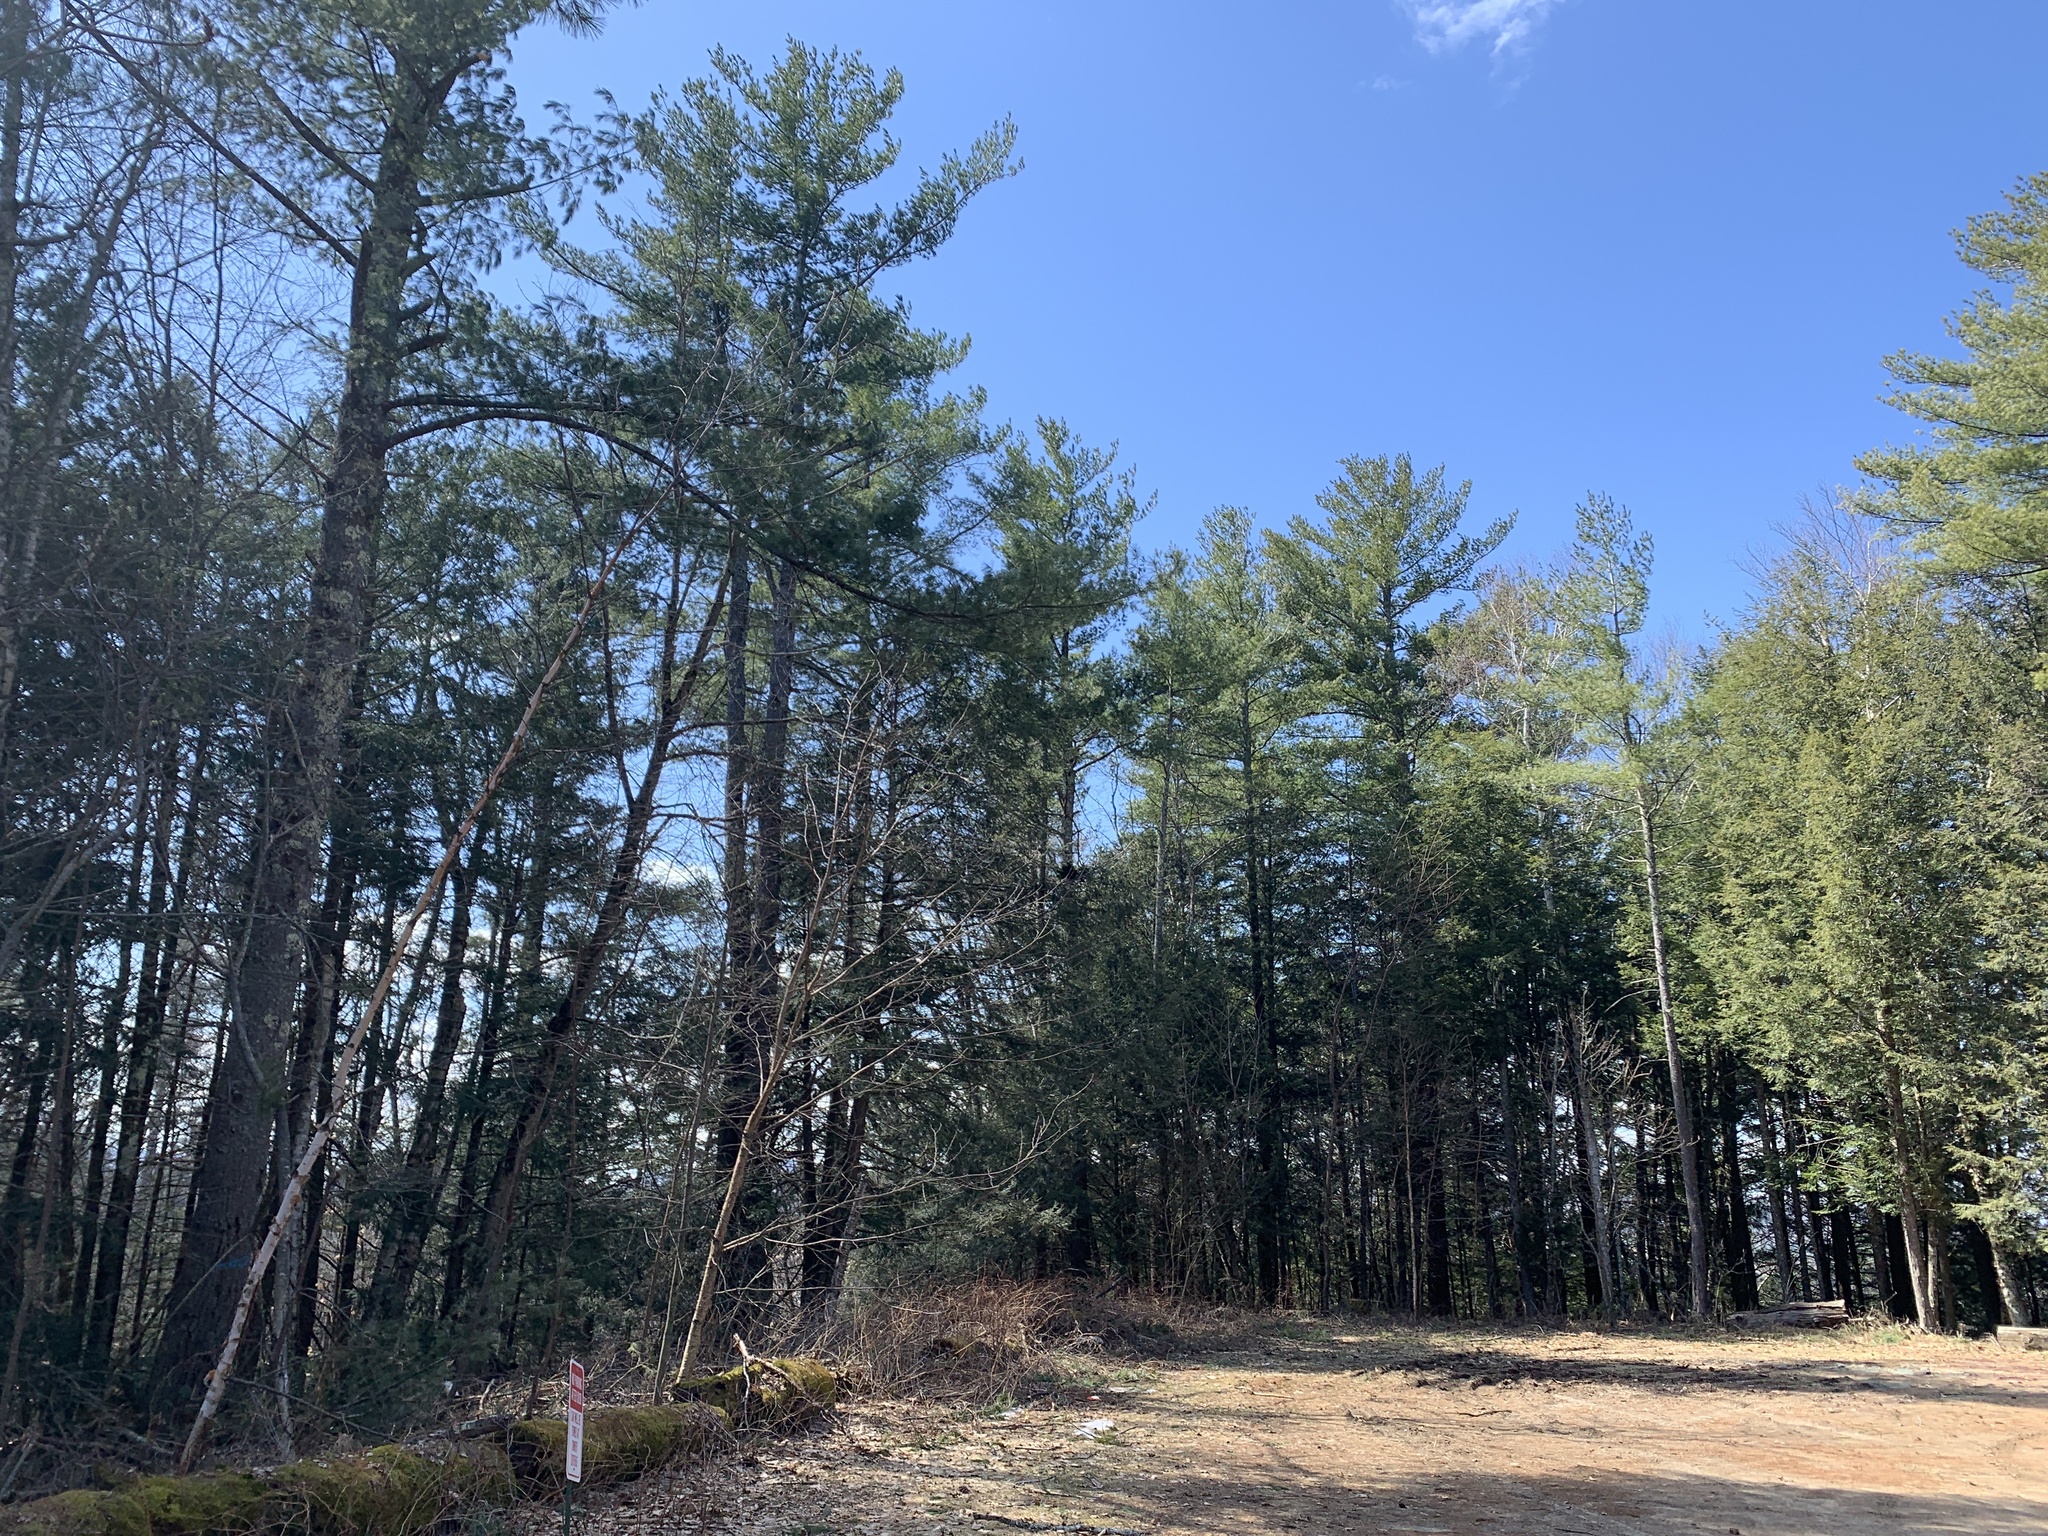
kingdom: Plantae
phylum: Tracheophyta
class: Pinopsida
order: Pinales
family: Pinaceae
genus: Pinus
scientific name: Pinus strobus
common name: Weymouth pine
